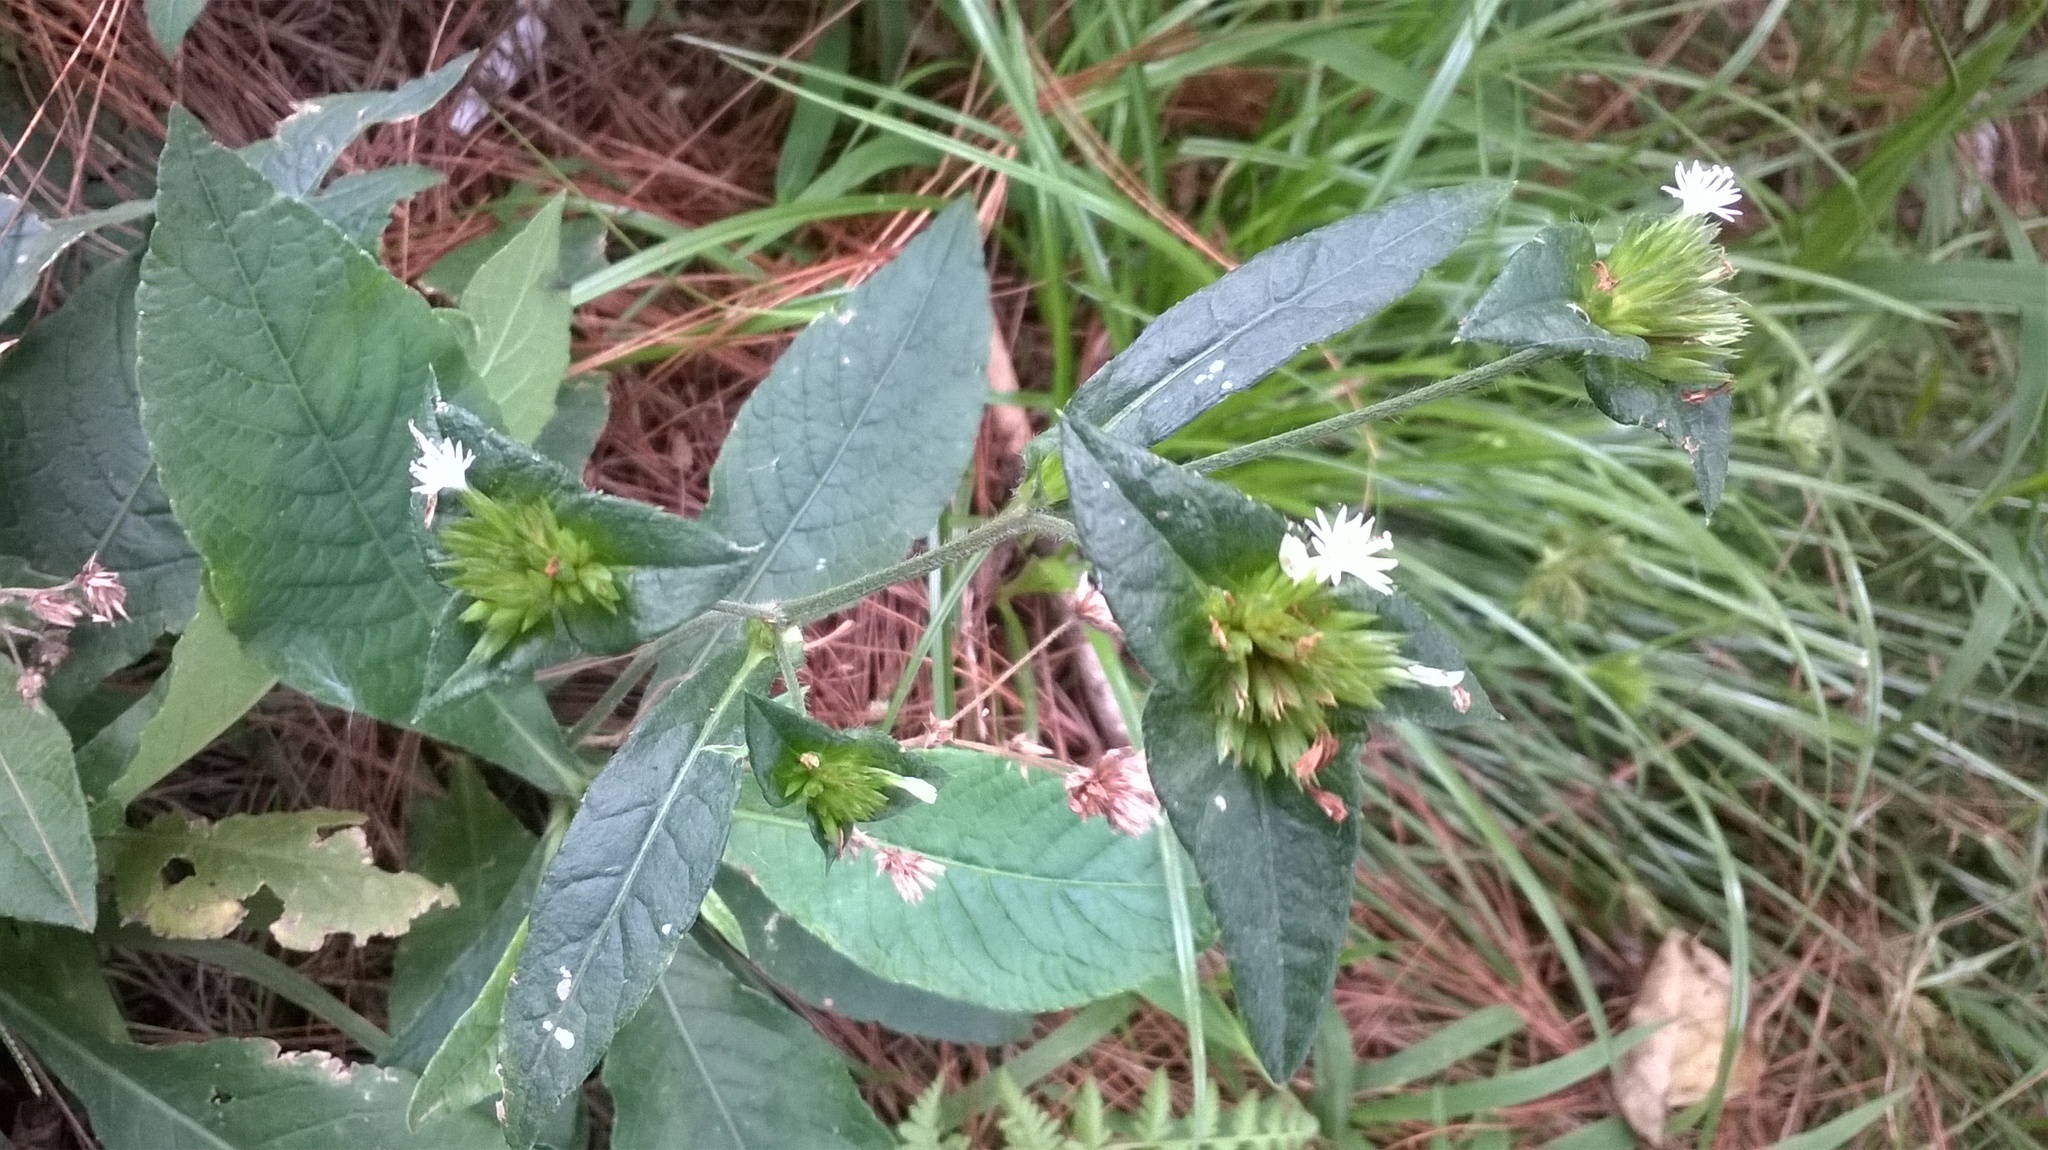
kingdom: Plantae
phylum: Tracheophyta
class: Magnoliopsida
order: Asterales
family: Asteraceae
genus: Elephantopus
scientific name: Elephantopus mollis
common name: Soft elephantsfoot
